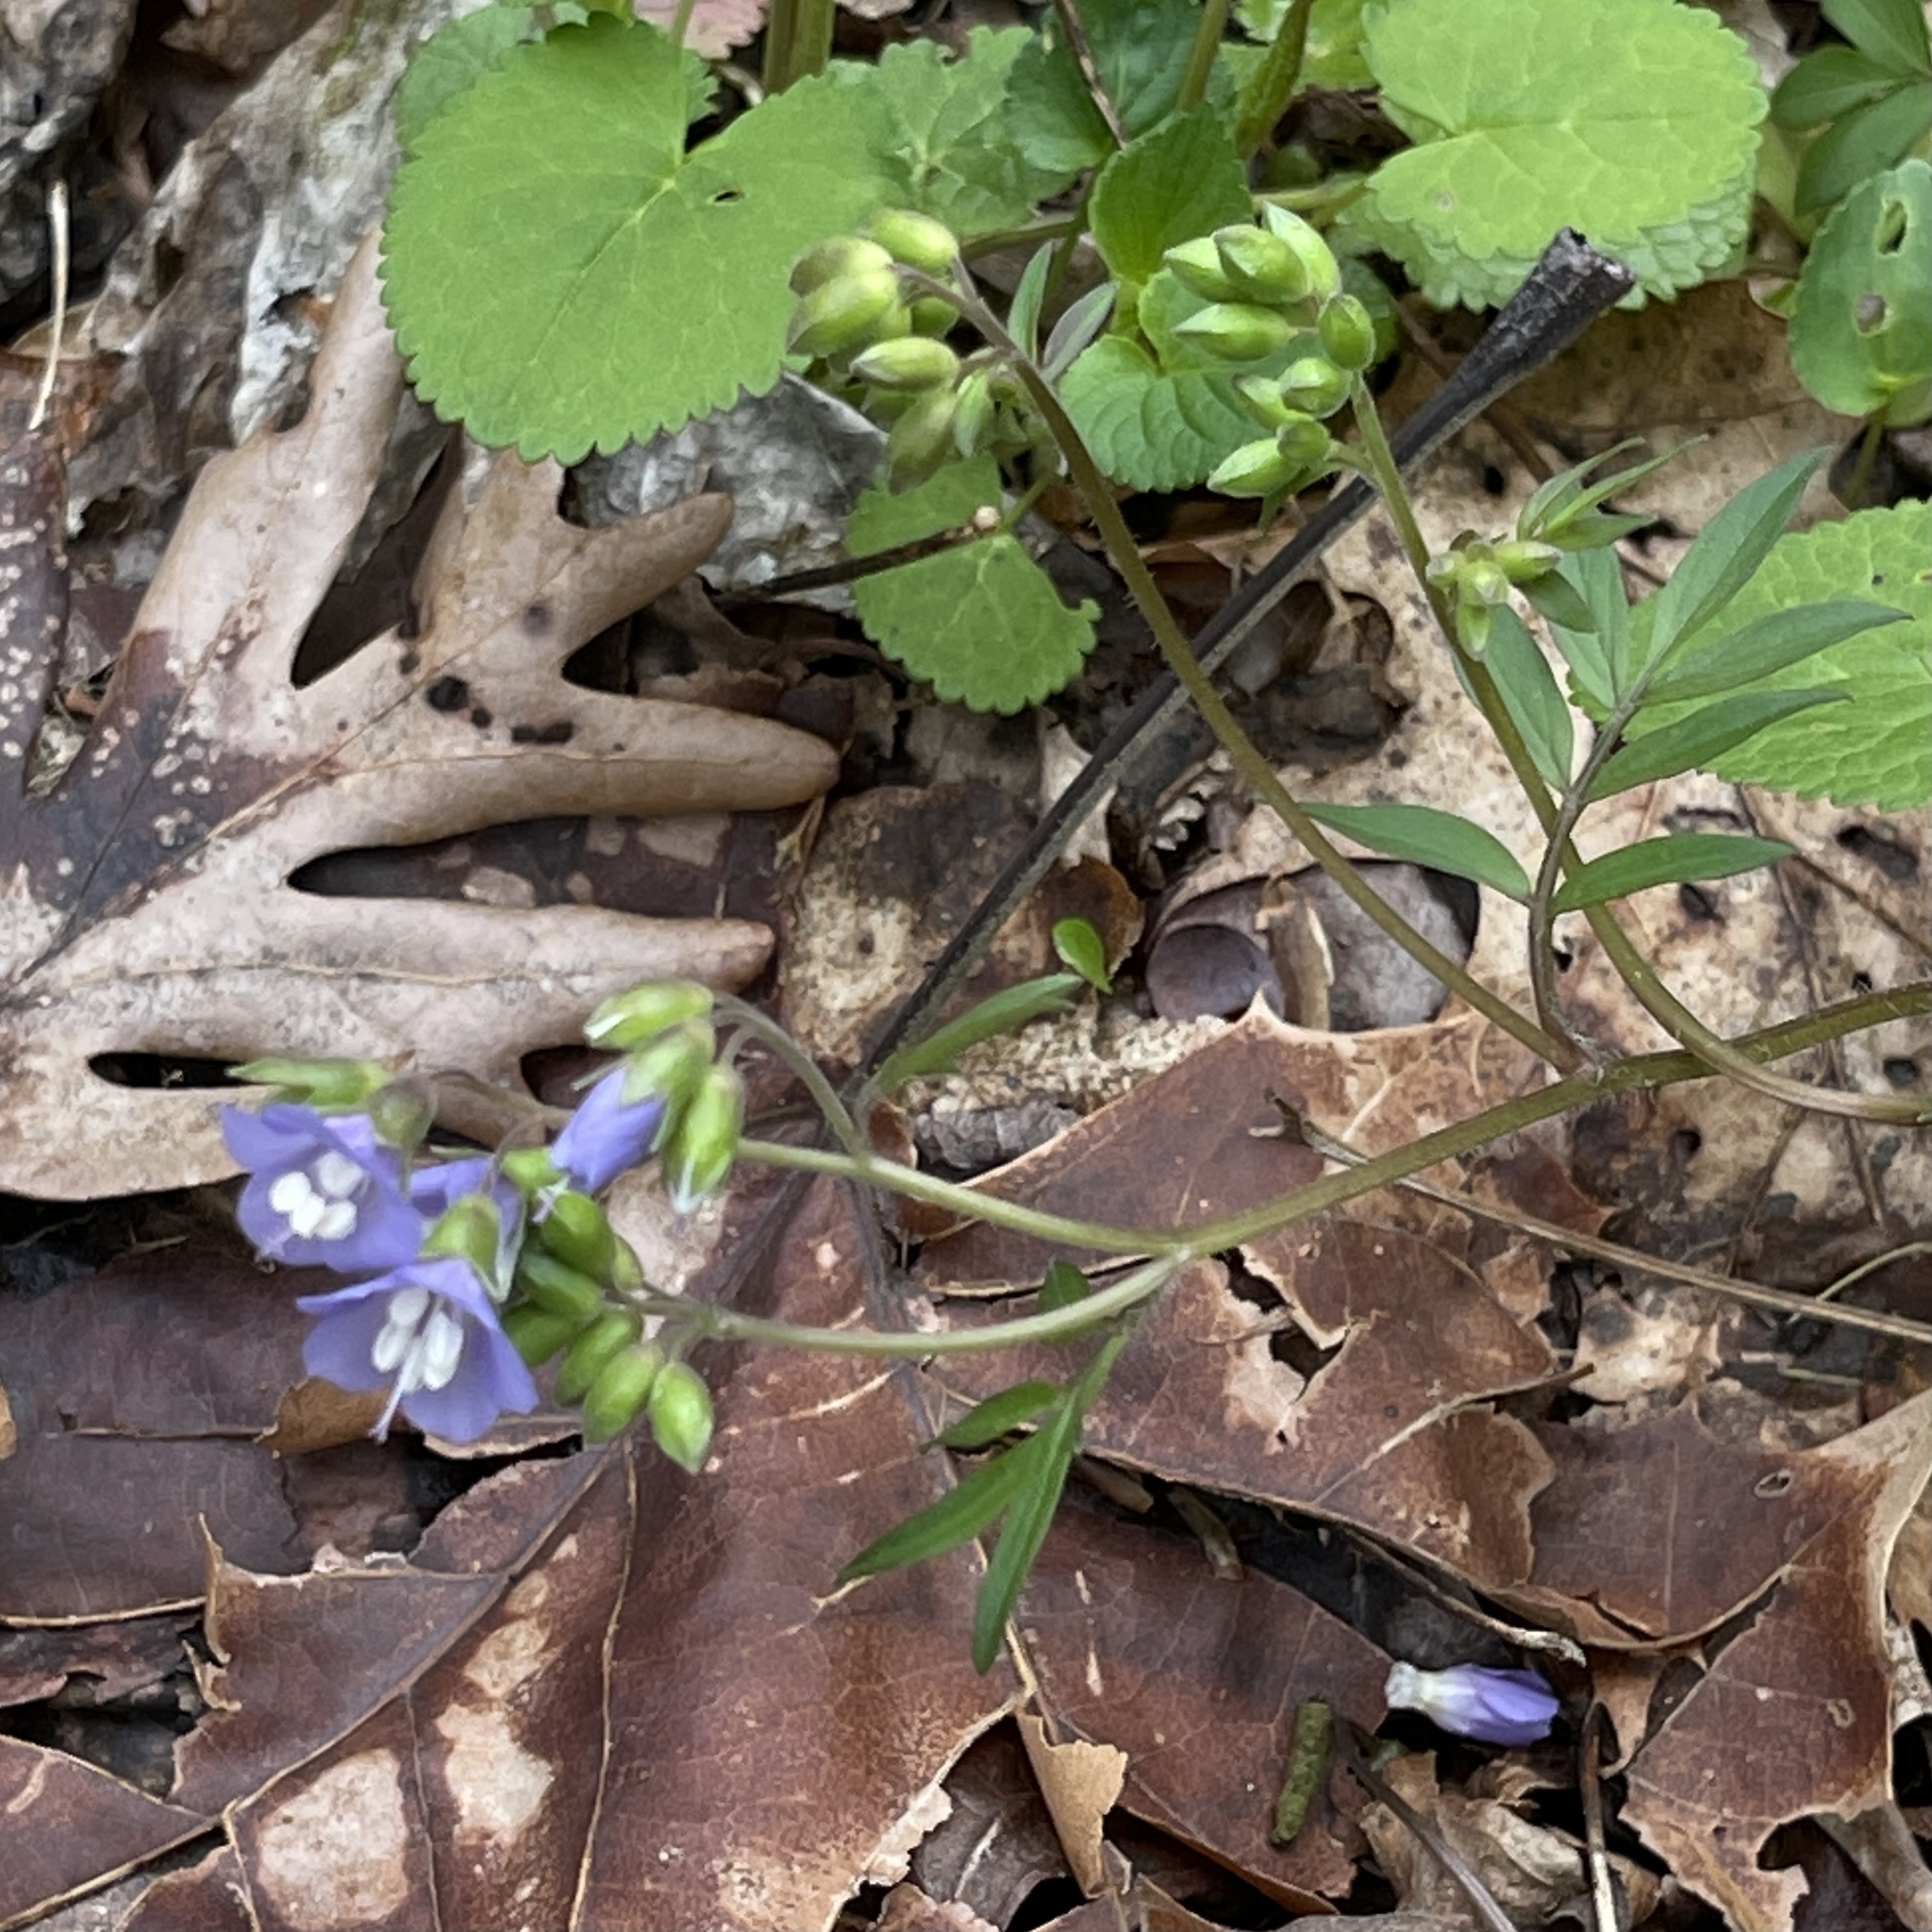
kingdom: Plantae
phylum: Tracheophyta
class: Magnoliopsida
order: Ericales
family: Polemoniaceae
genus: Polemonium
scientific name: Polemonium reptans
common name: Creeping jacob's-ladder
